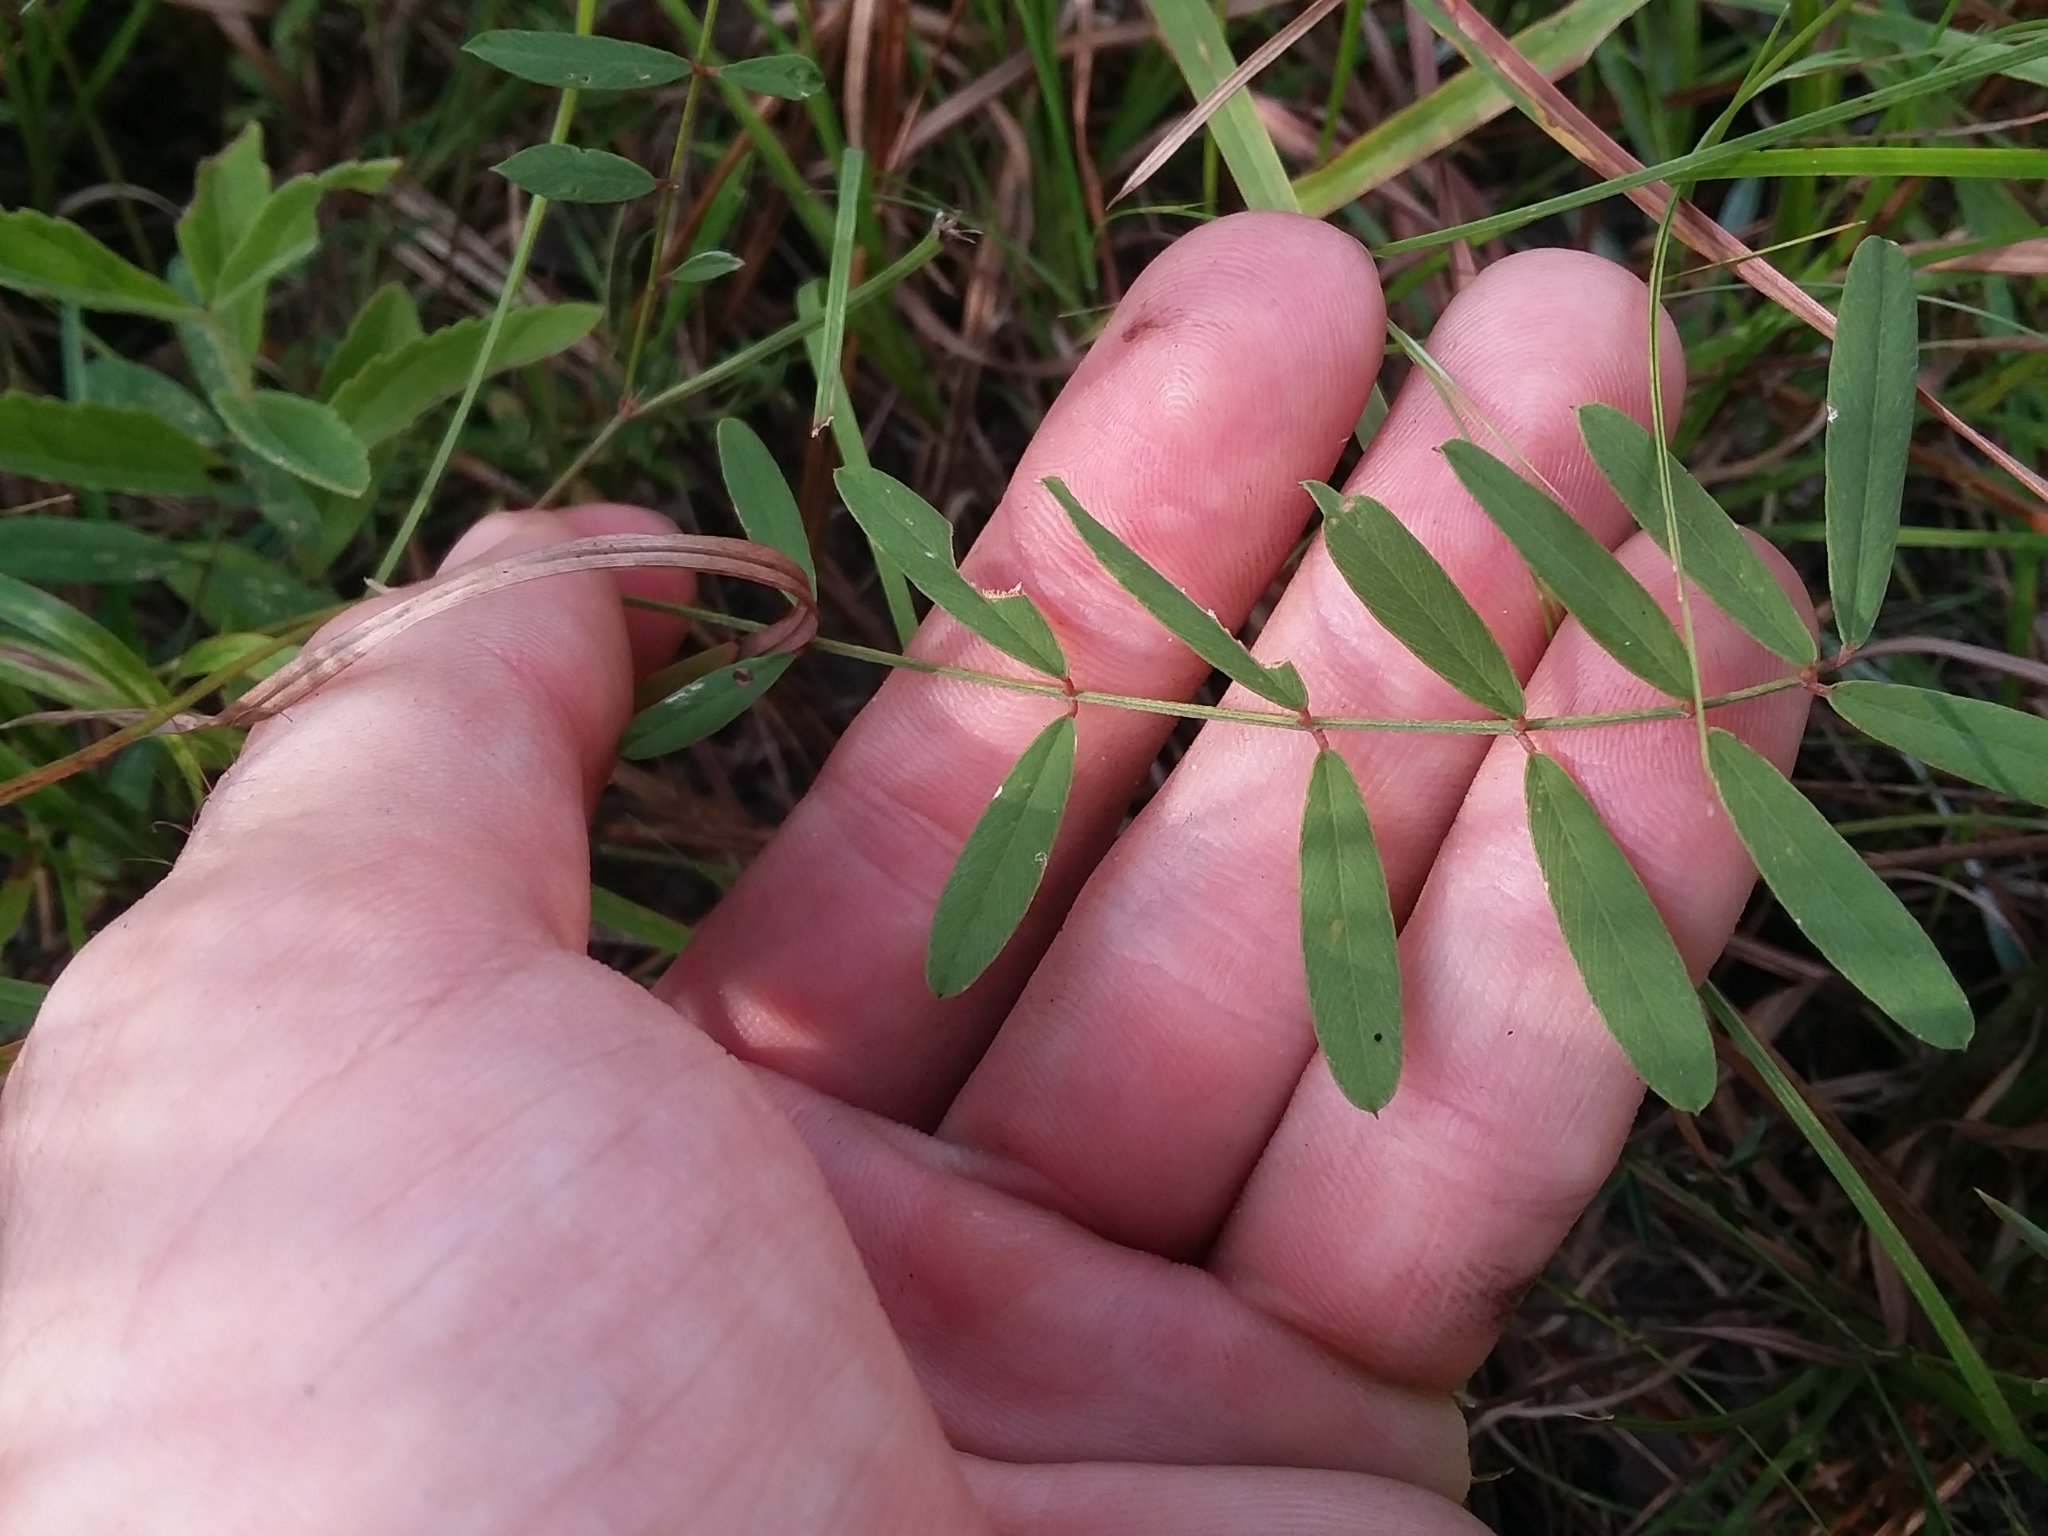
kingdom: Plantae
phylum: Tracheophyta
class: Magnoliopsida
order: Fabales
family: Fabaceae
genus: Tephrosia
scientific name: Tephrosia florida
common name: Florida hoary-pea
